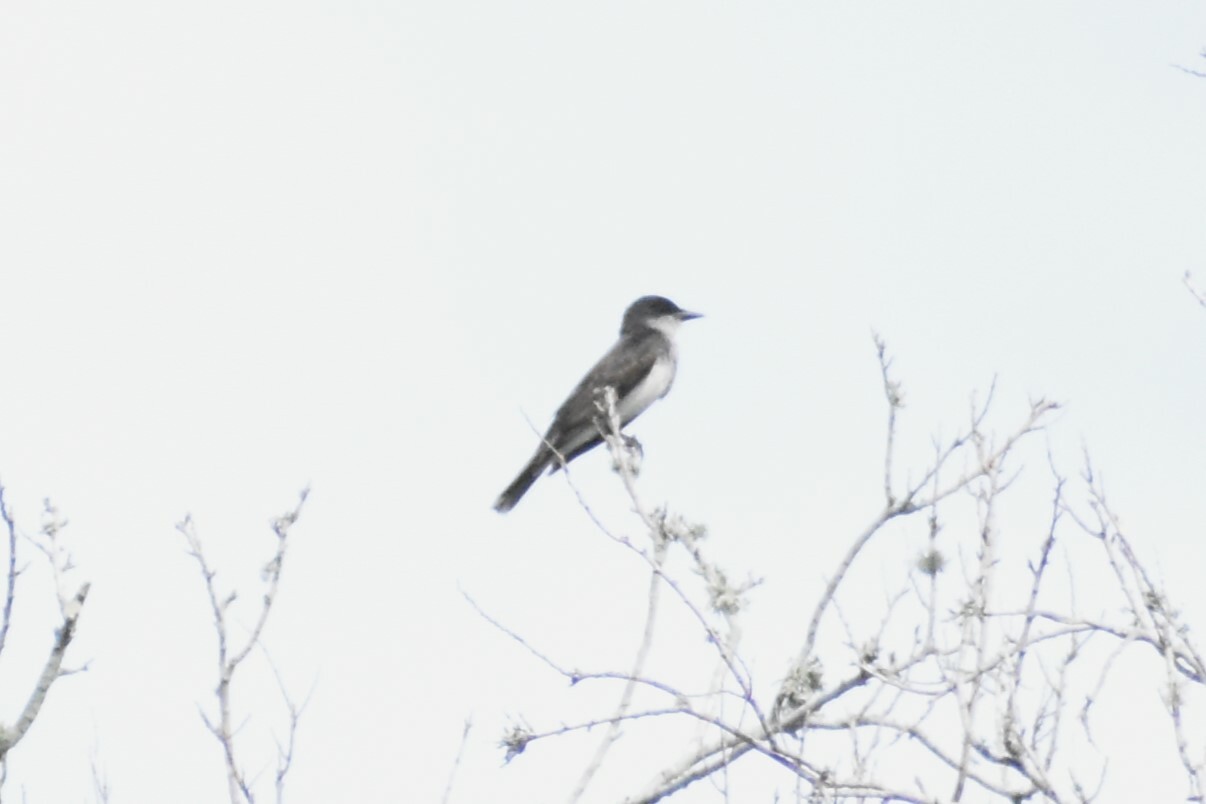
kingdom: Animalia
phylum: Chordata
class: Aves
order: Passeriformes
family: Tyrannidae
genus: Tyrannus
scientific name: Tyrannus tyrannus
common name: Eastern kingbird
